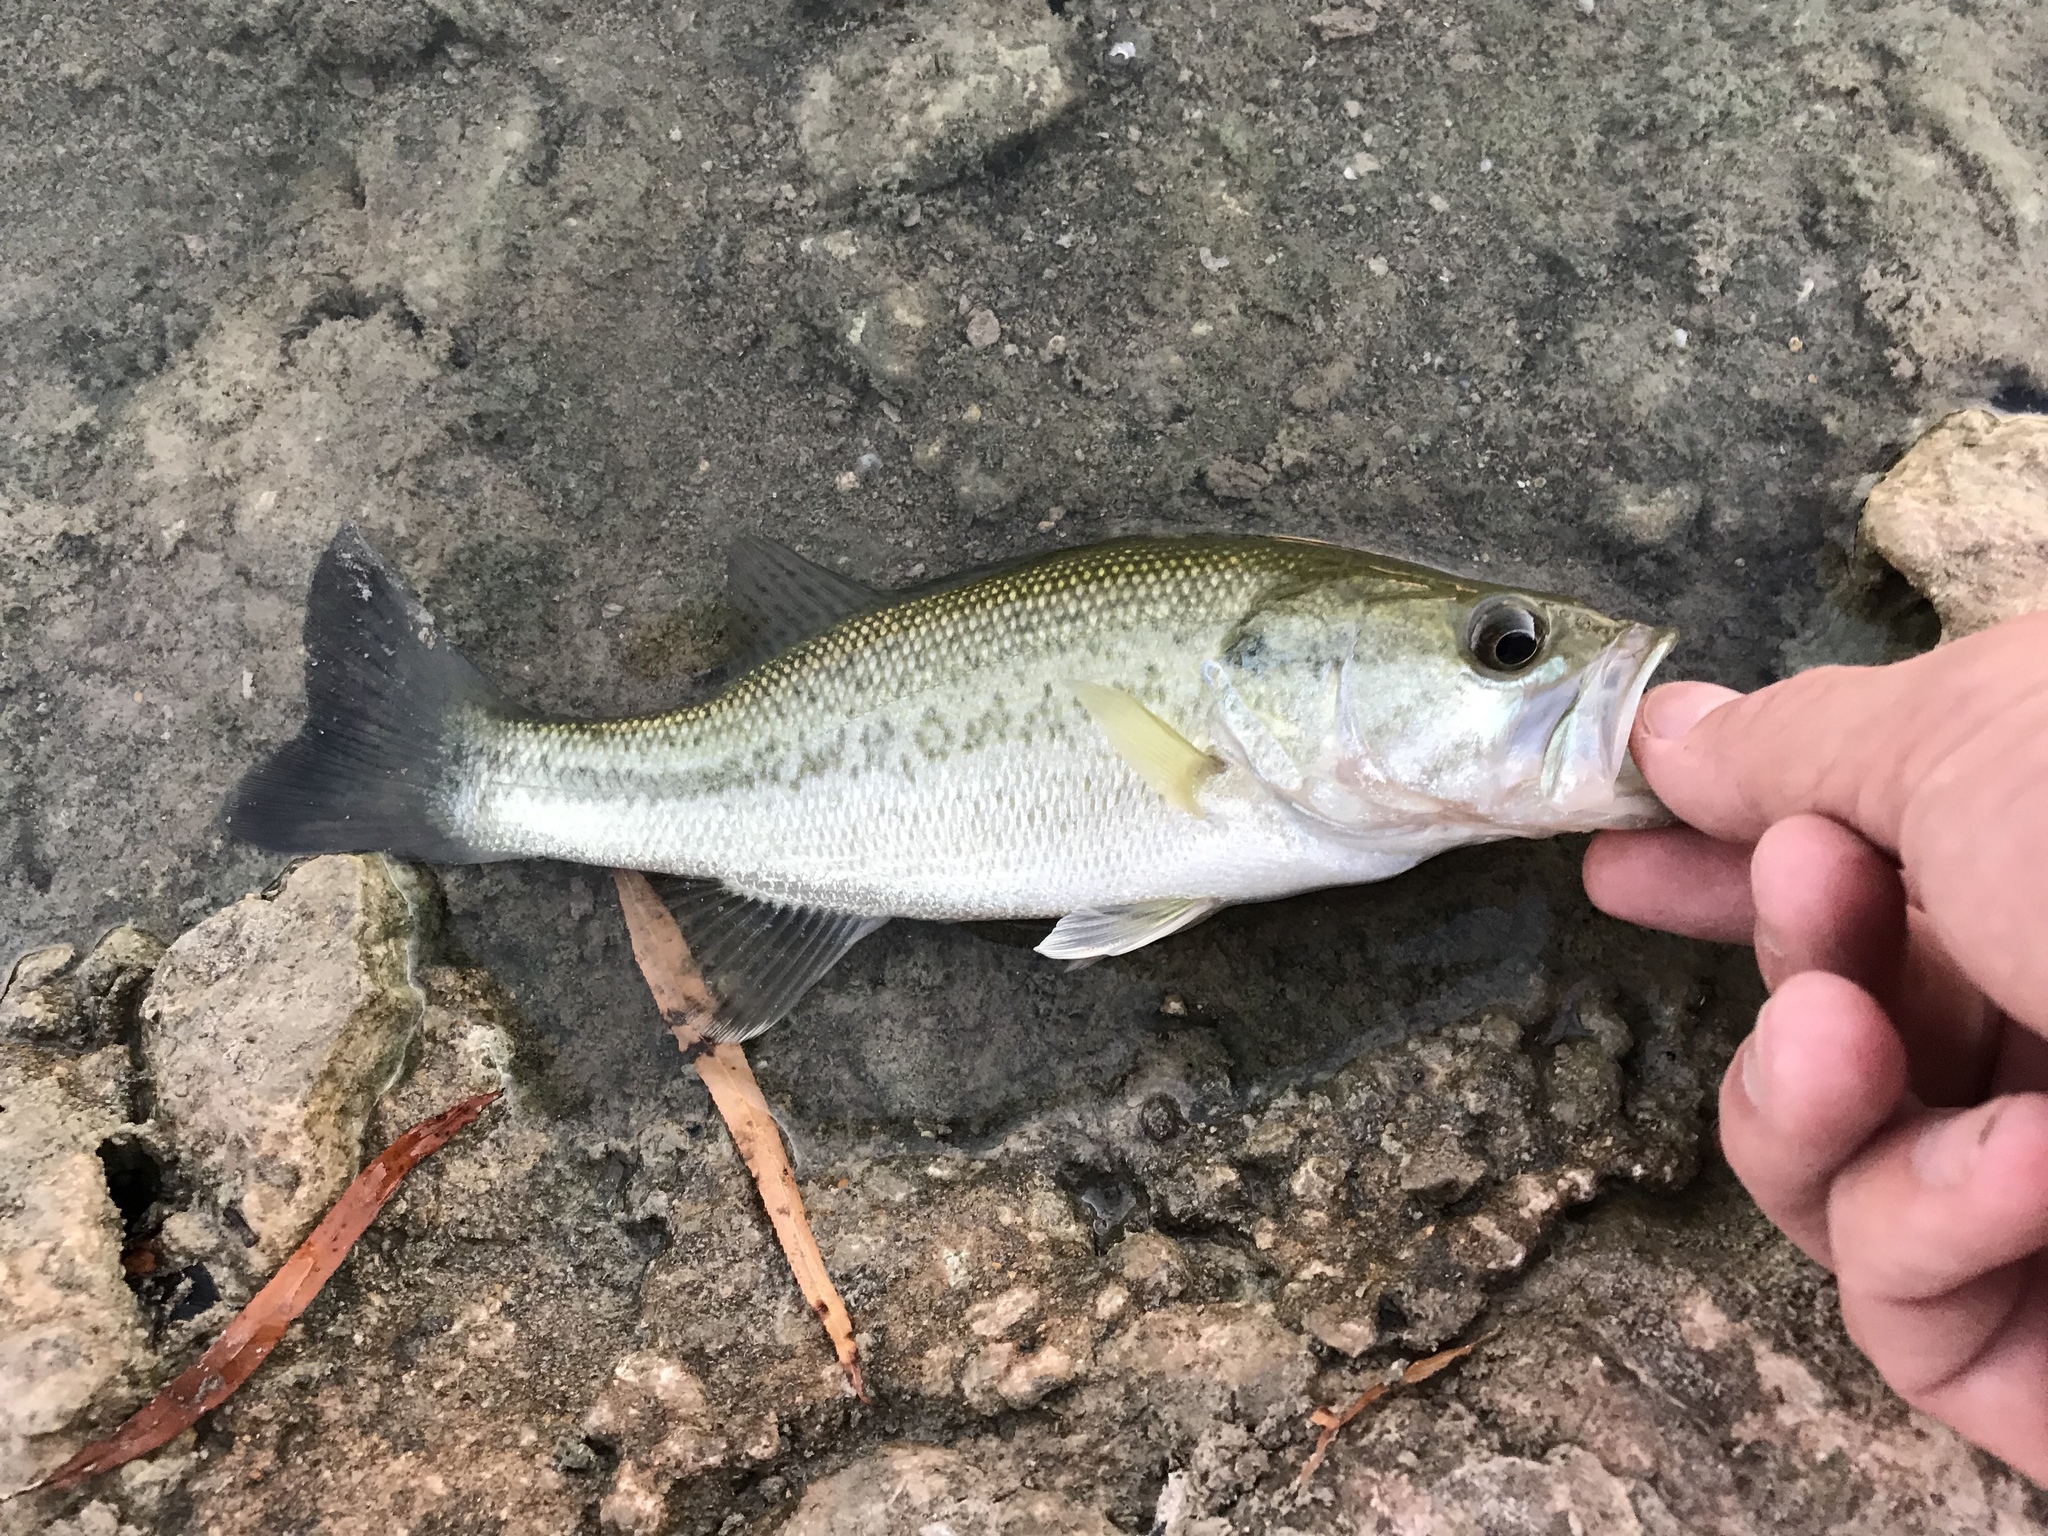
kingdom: Animalia
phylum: Chordata
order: Perciformes
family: Centrarchidae
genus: Micropterus
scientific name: Micropterus
